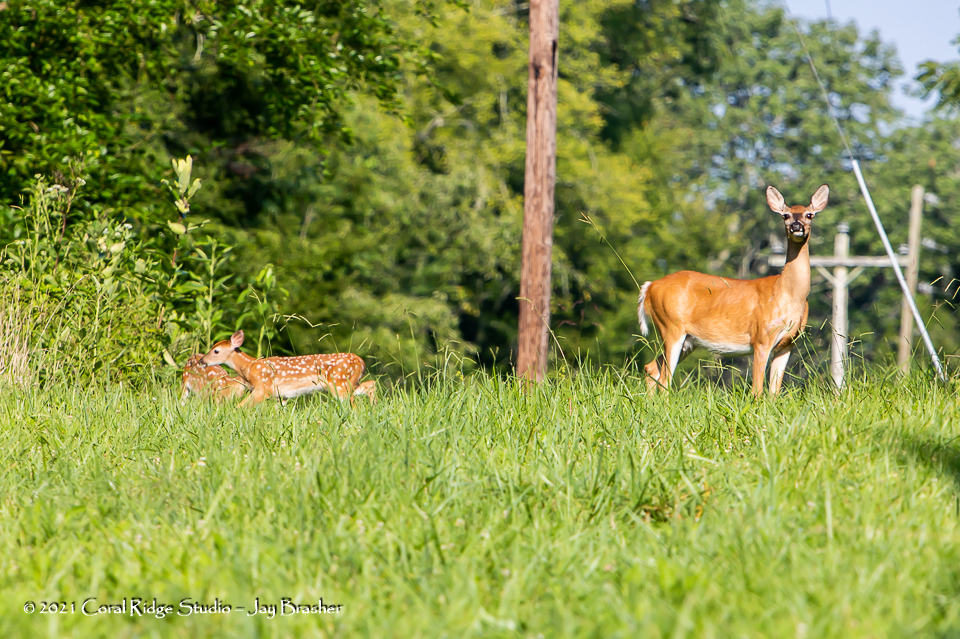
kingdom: Animalia
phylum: Chordata
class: Mammalia
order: Artiodactyla
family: Cervidae
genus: Odocoileus
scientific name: Odocoileus virginianus
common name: White-tailed deer
